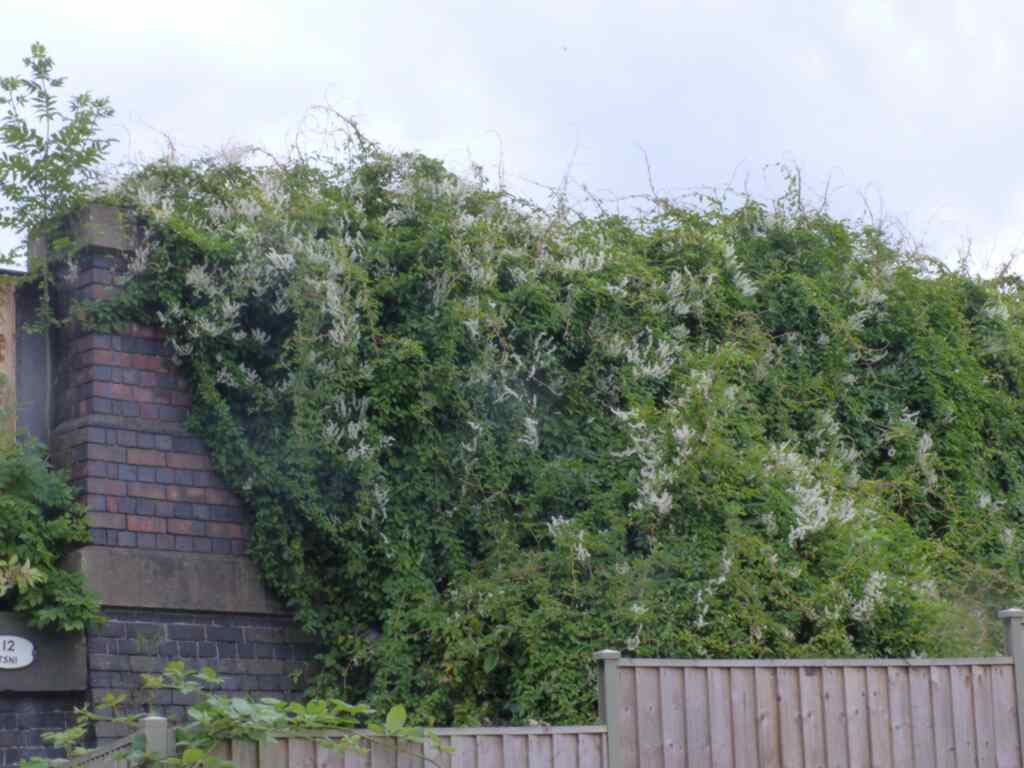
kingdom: Plantae
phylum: Tracheophyta
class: Magnoliopsida
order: Caryophyllales
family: Polygonaceae
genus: Fallopia
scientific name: Fallopia baldschuanica
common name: Russian-vine
